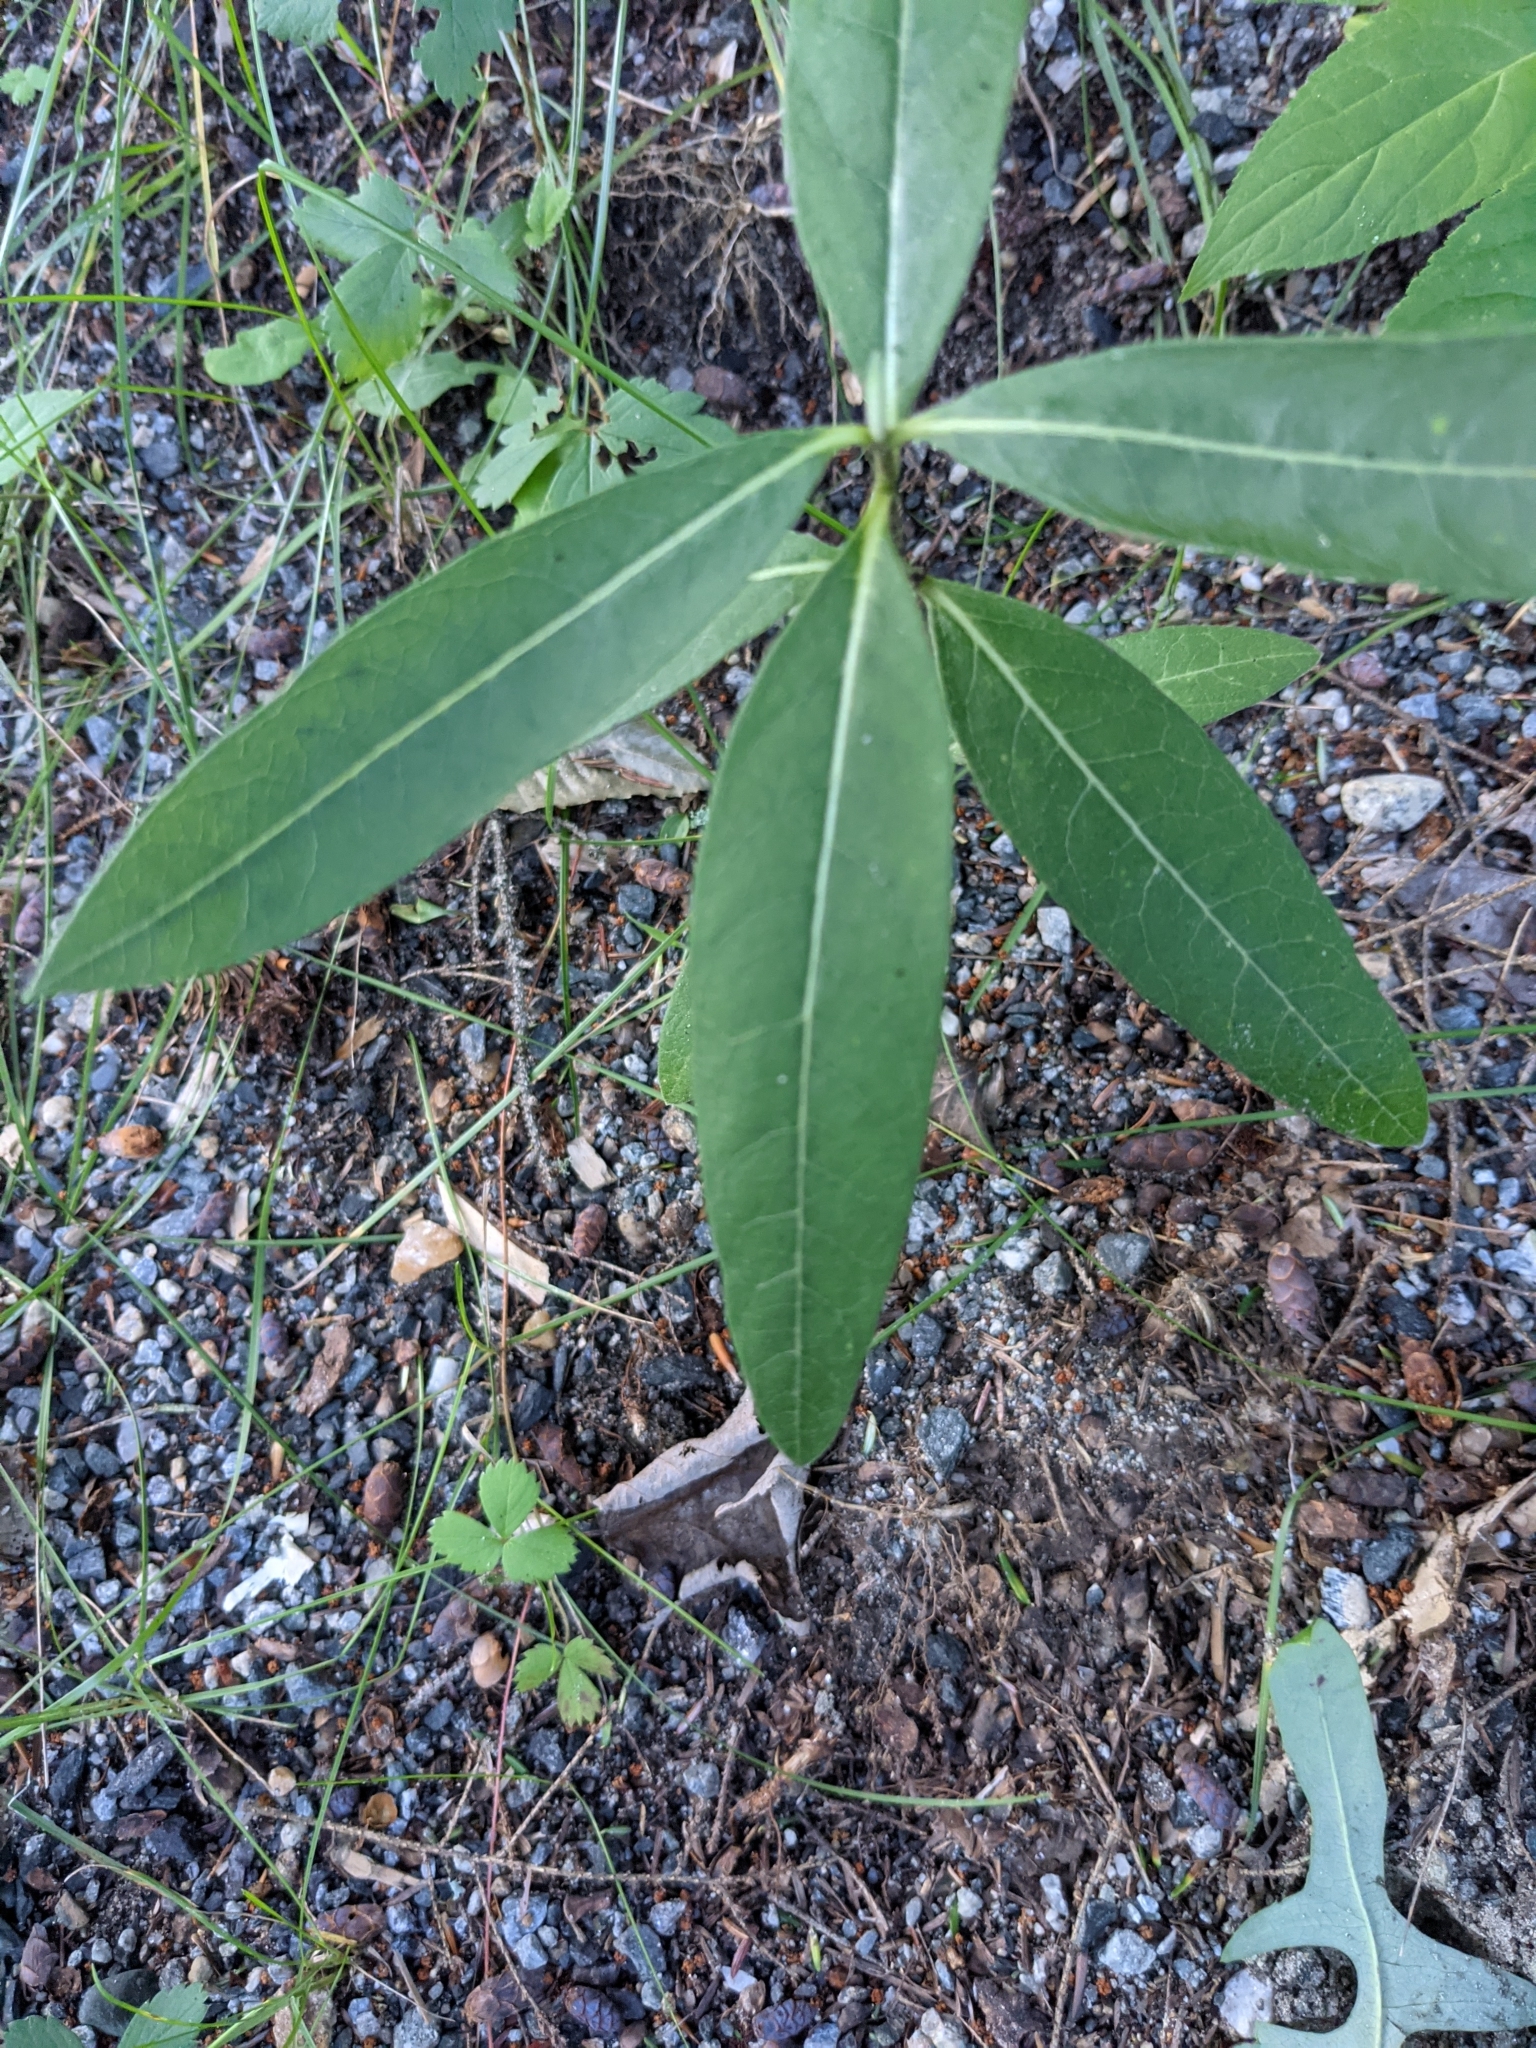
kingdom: Plantae
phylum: Tracheophyta
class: Magnoliopsida
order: Gentianales
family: Apocynaceae
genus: Asclepias
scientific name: Asclepias syriaca
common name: Common milkweed
